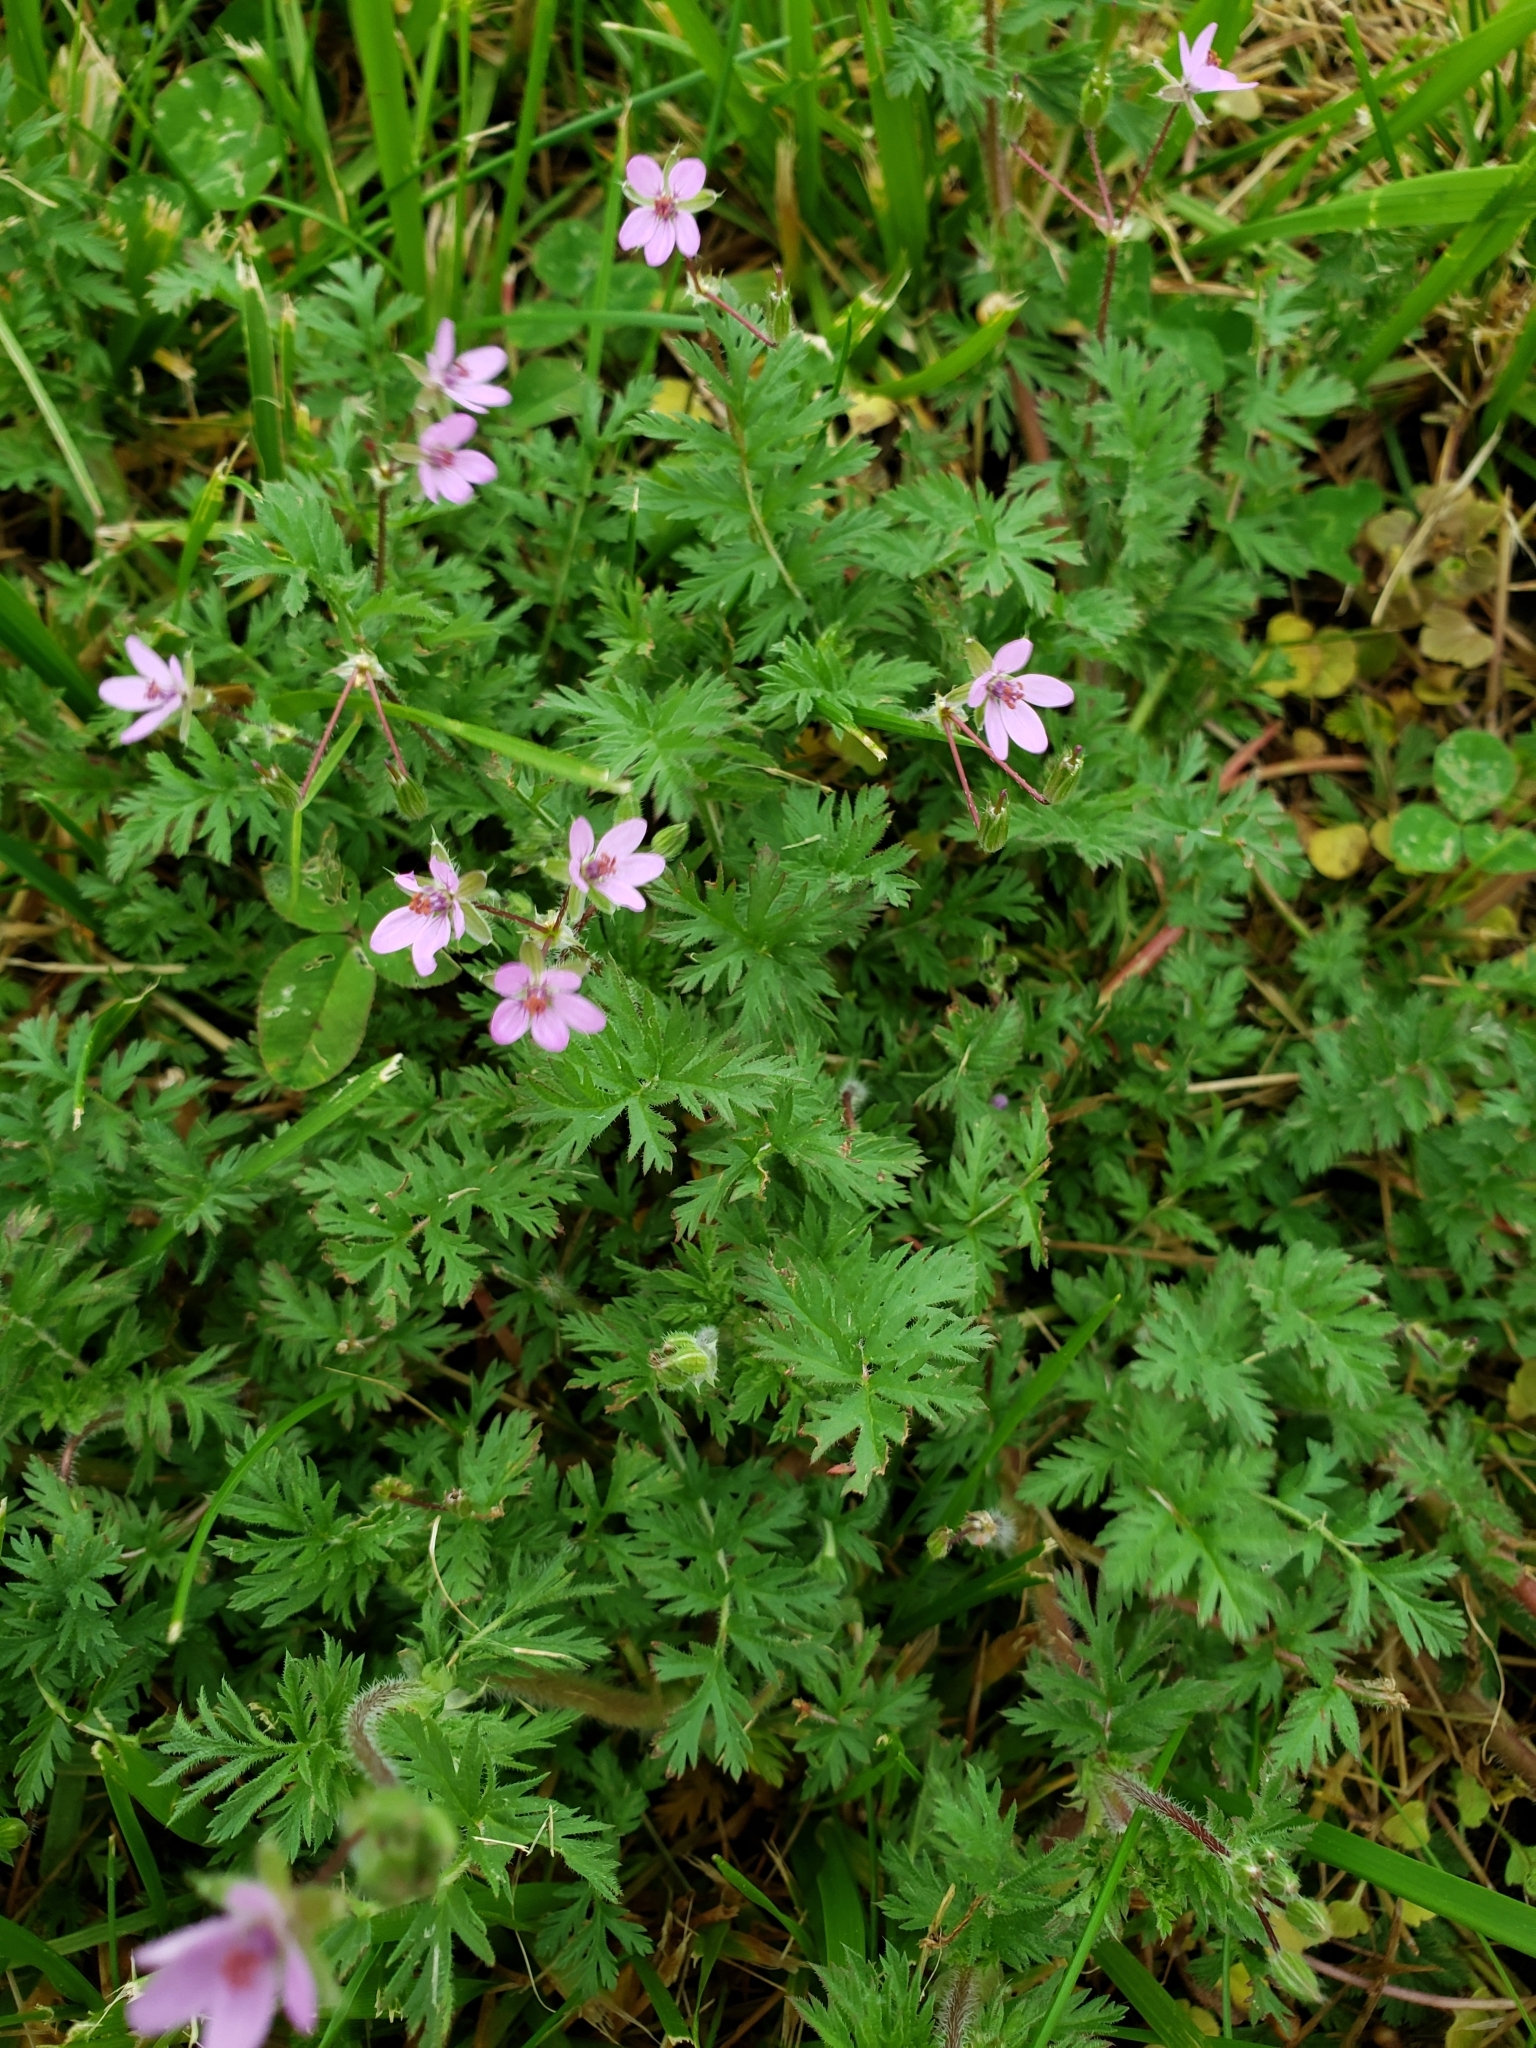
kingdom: Plantae
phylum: Tracheophyta
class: Magnoliopsida
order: Geraniales
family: Geraniaceae
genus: Erodium
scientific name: Erodium cicutarium
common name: Common stork's-bill
